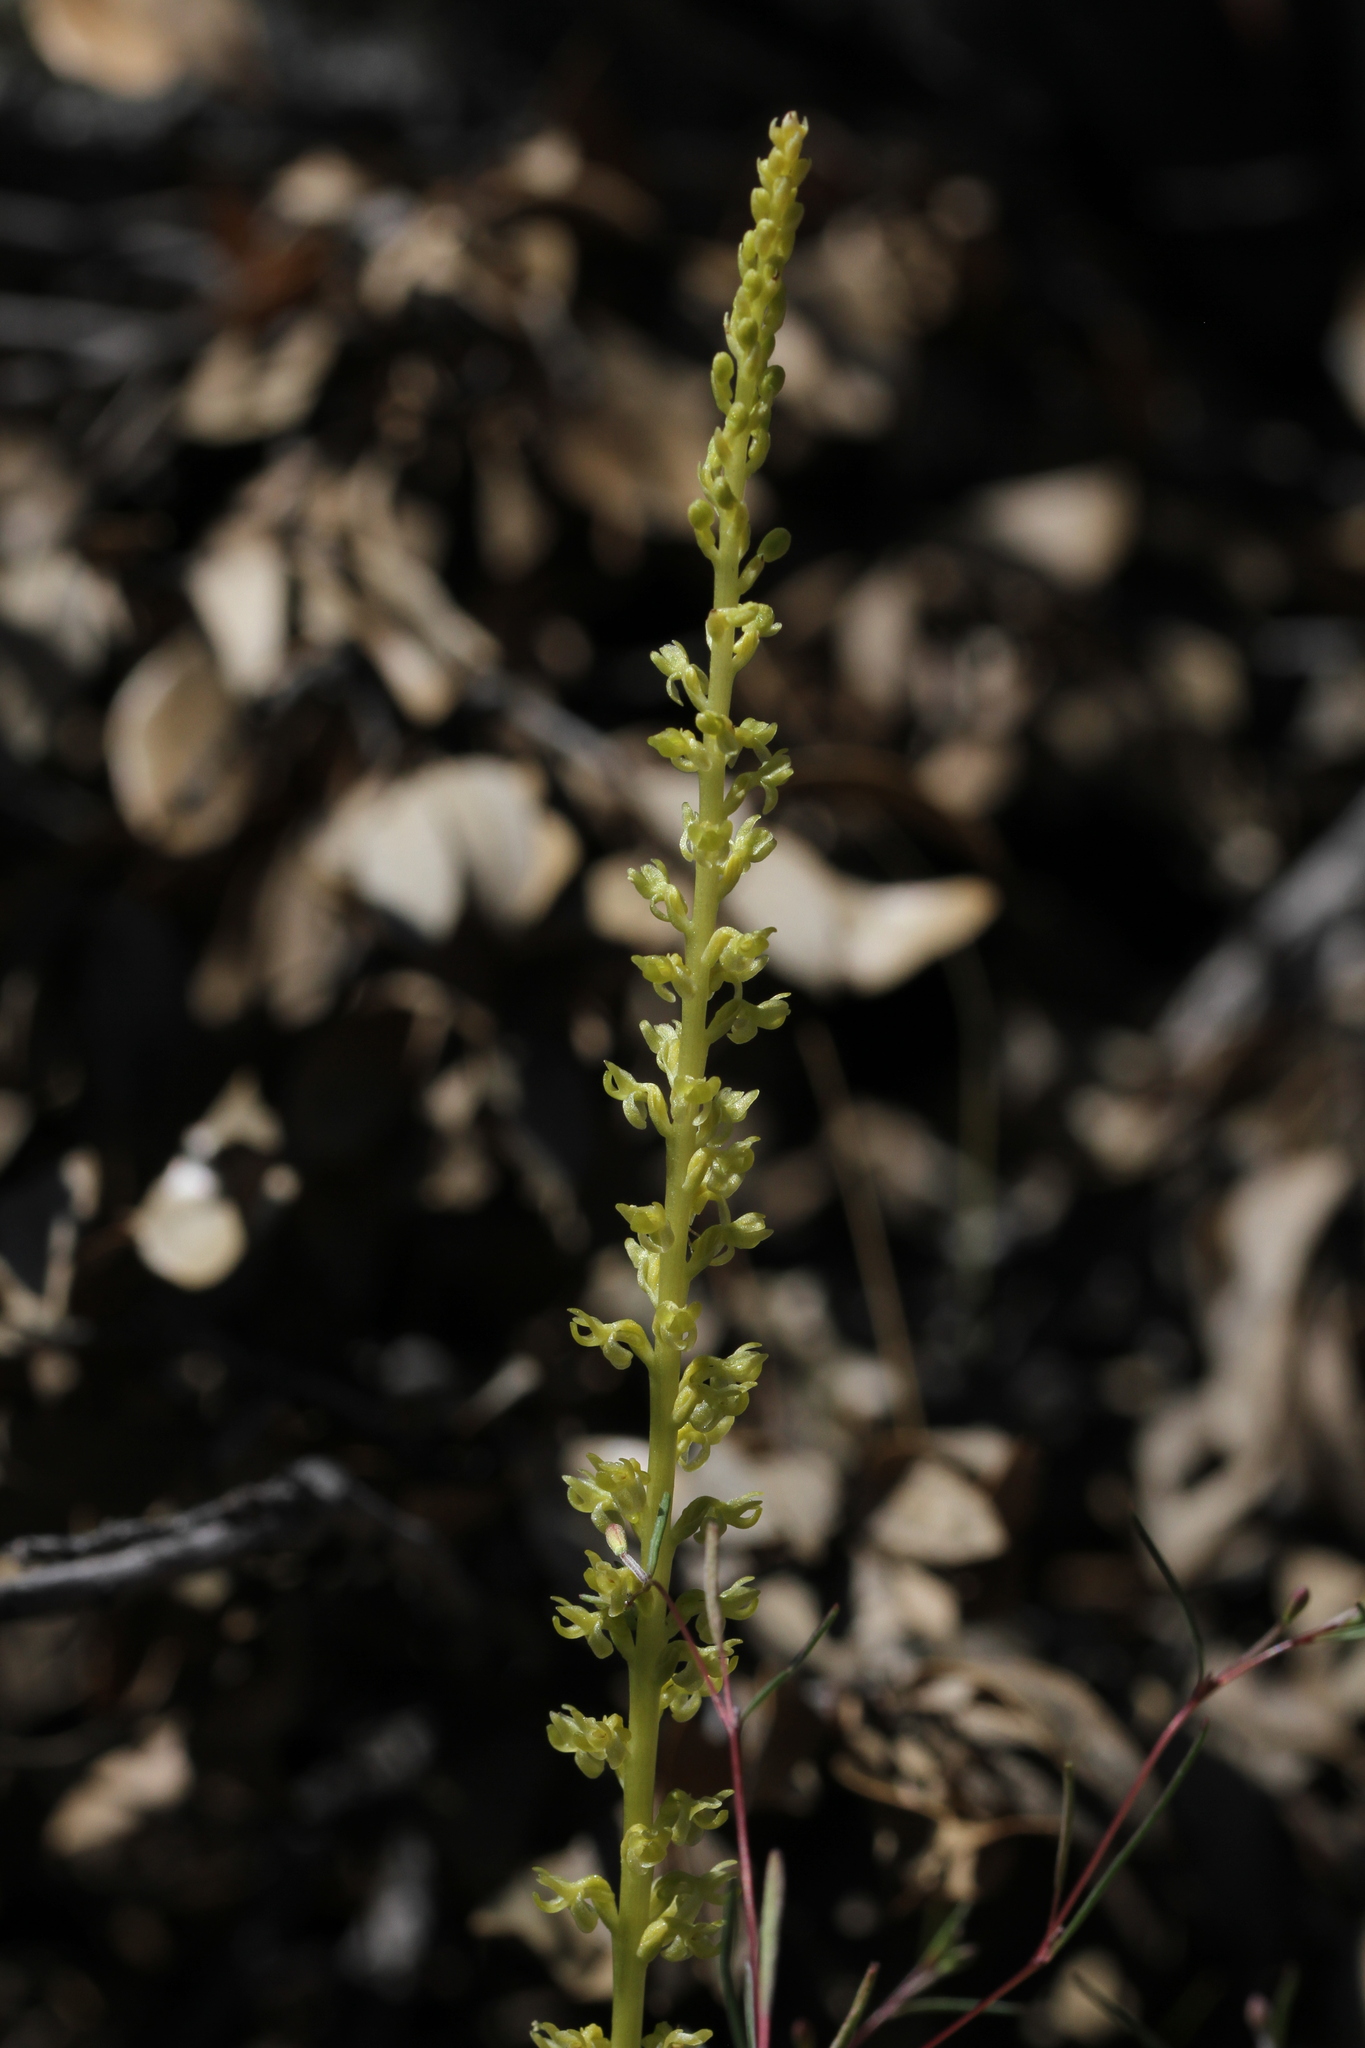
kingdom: Plantae
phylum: Tracheophyta
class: Liliopsida
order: Asparagales
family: Orchidaceae
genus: Platanthera
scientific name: Platanthera colemanii
